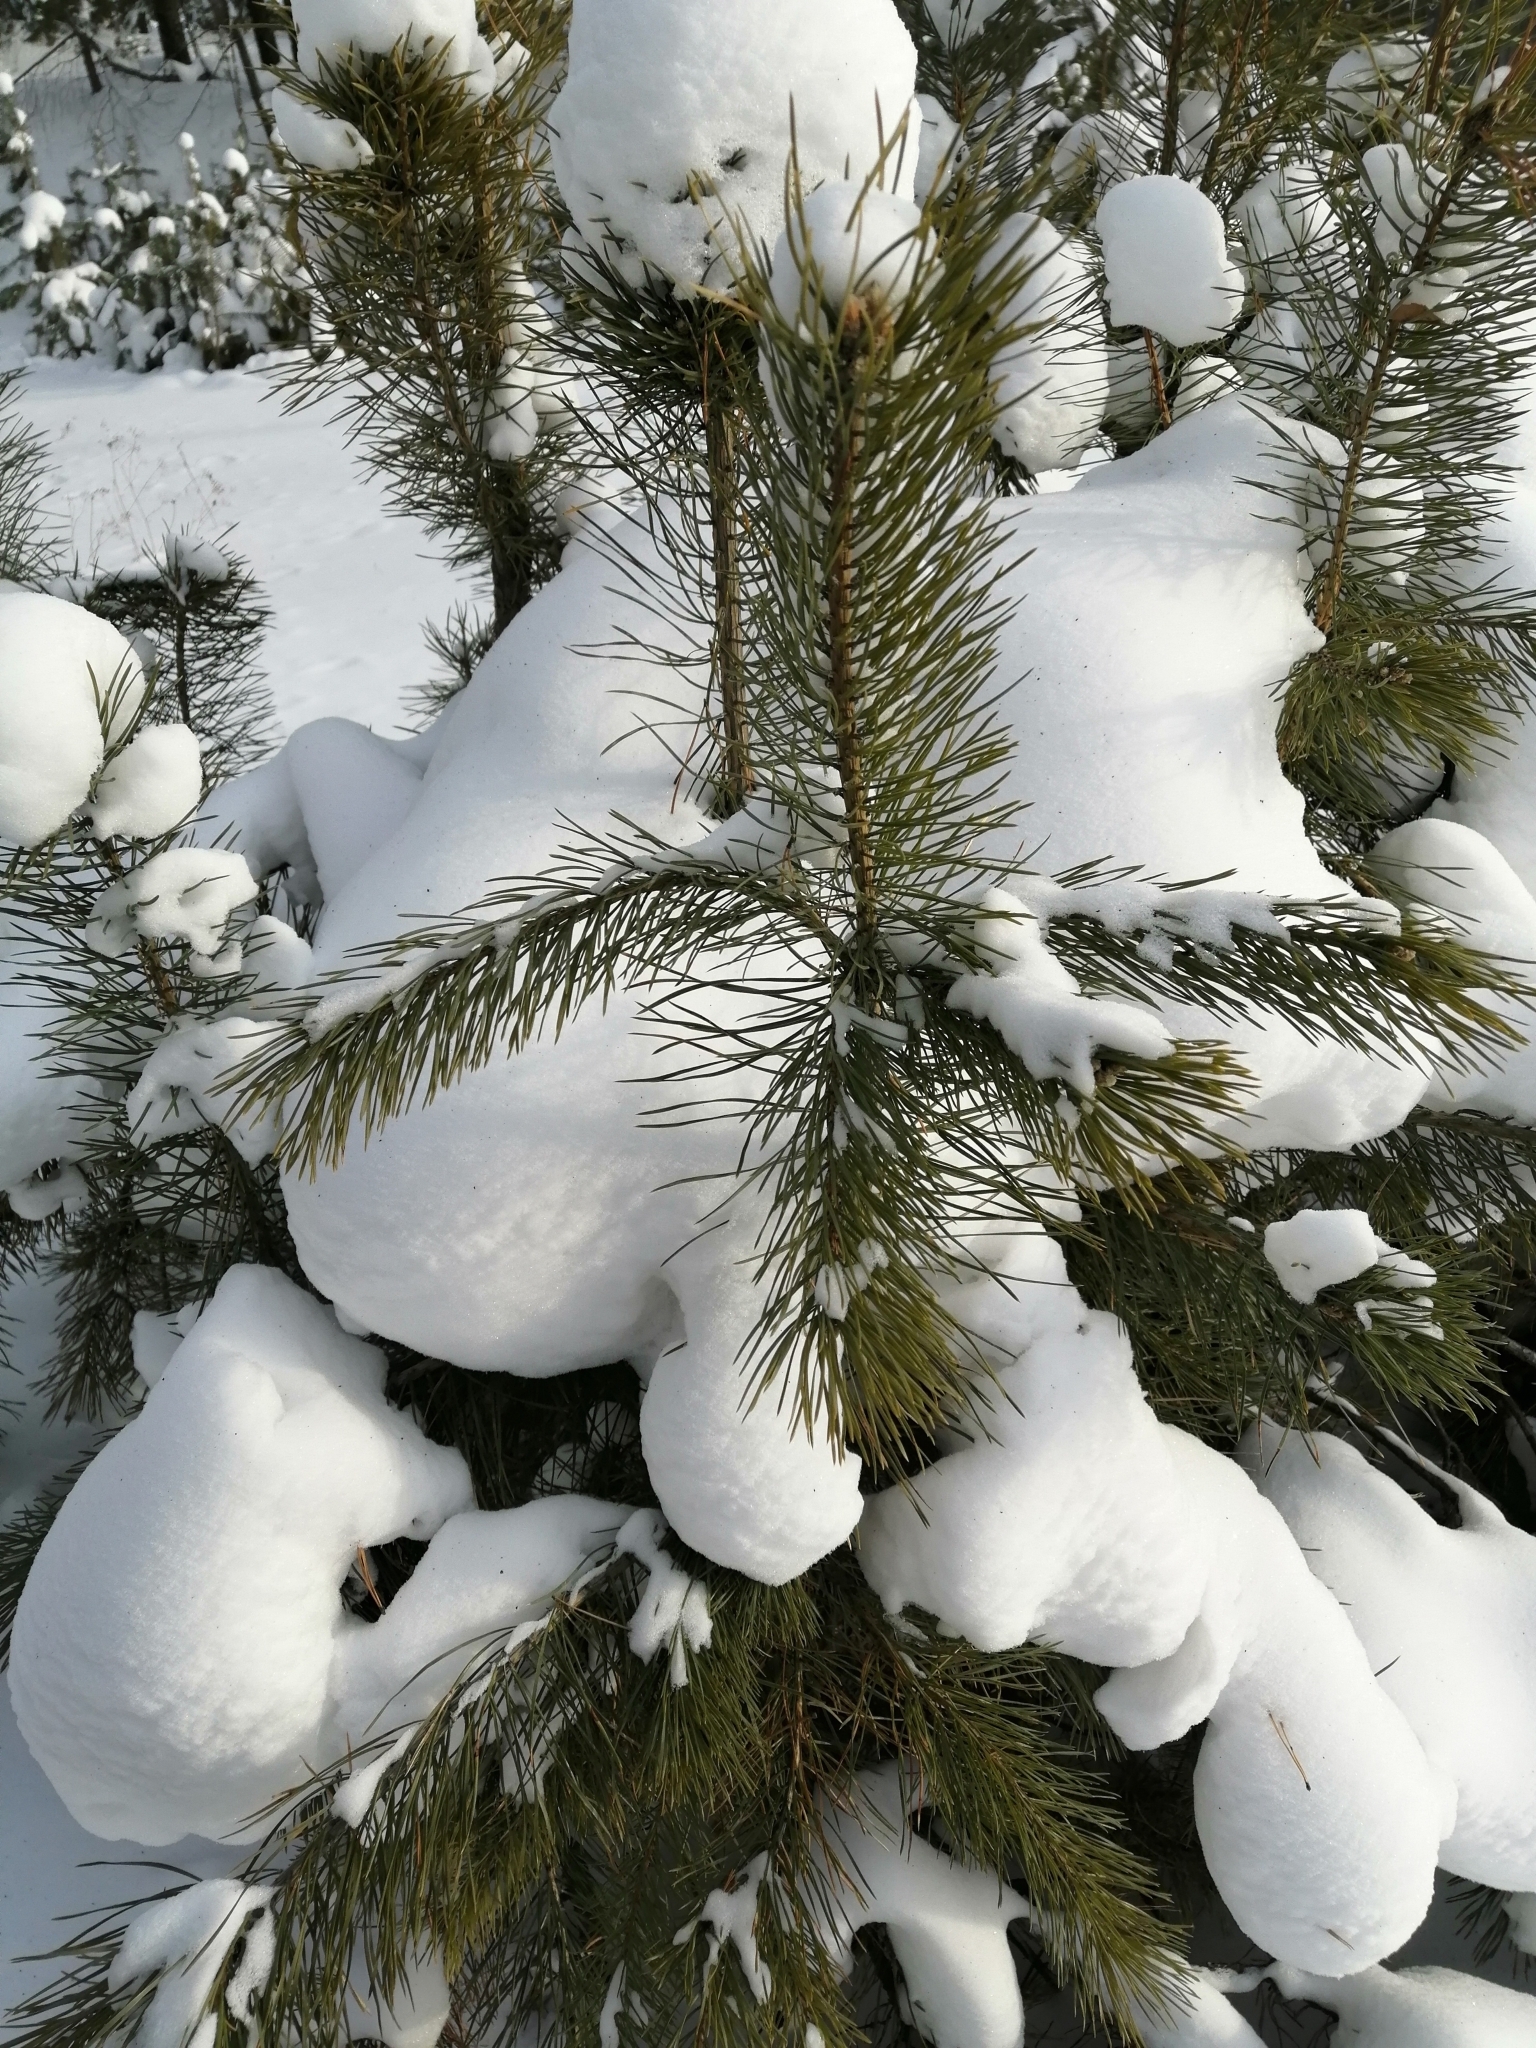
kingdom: Plantae
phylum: Tracheophyta
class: Pinopsida
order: Pinales
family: Pinaceae
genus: Pinus
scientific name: Pinus sylvestris
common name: Scots pine
